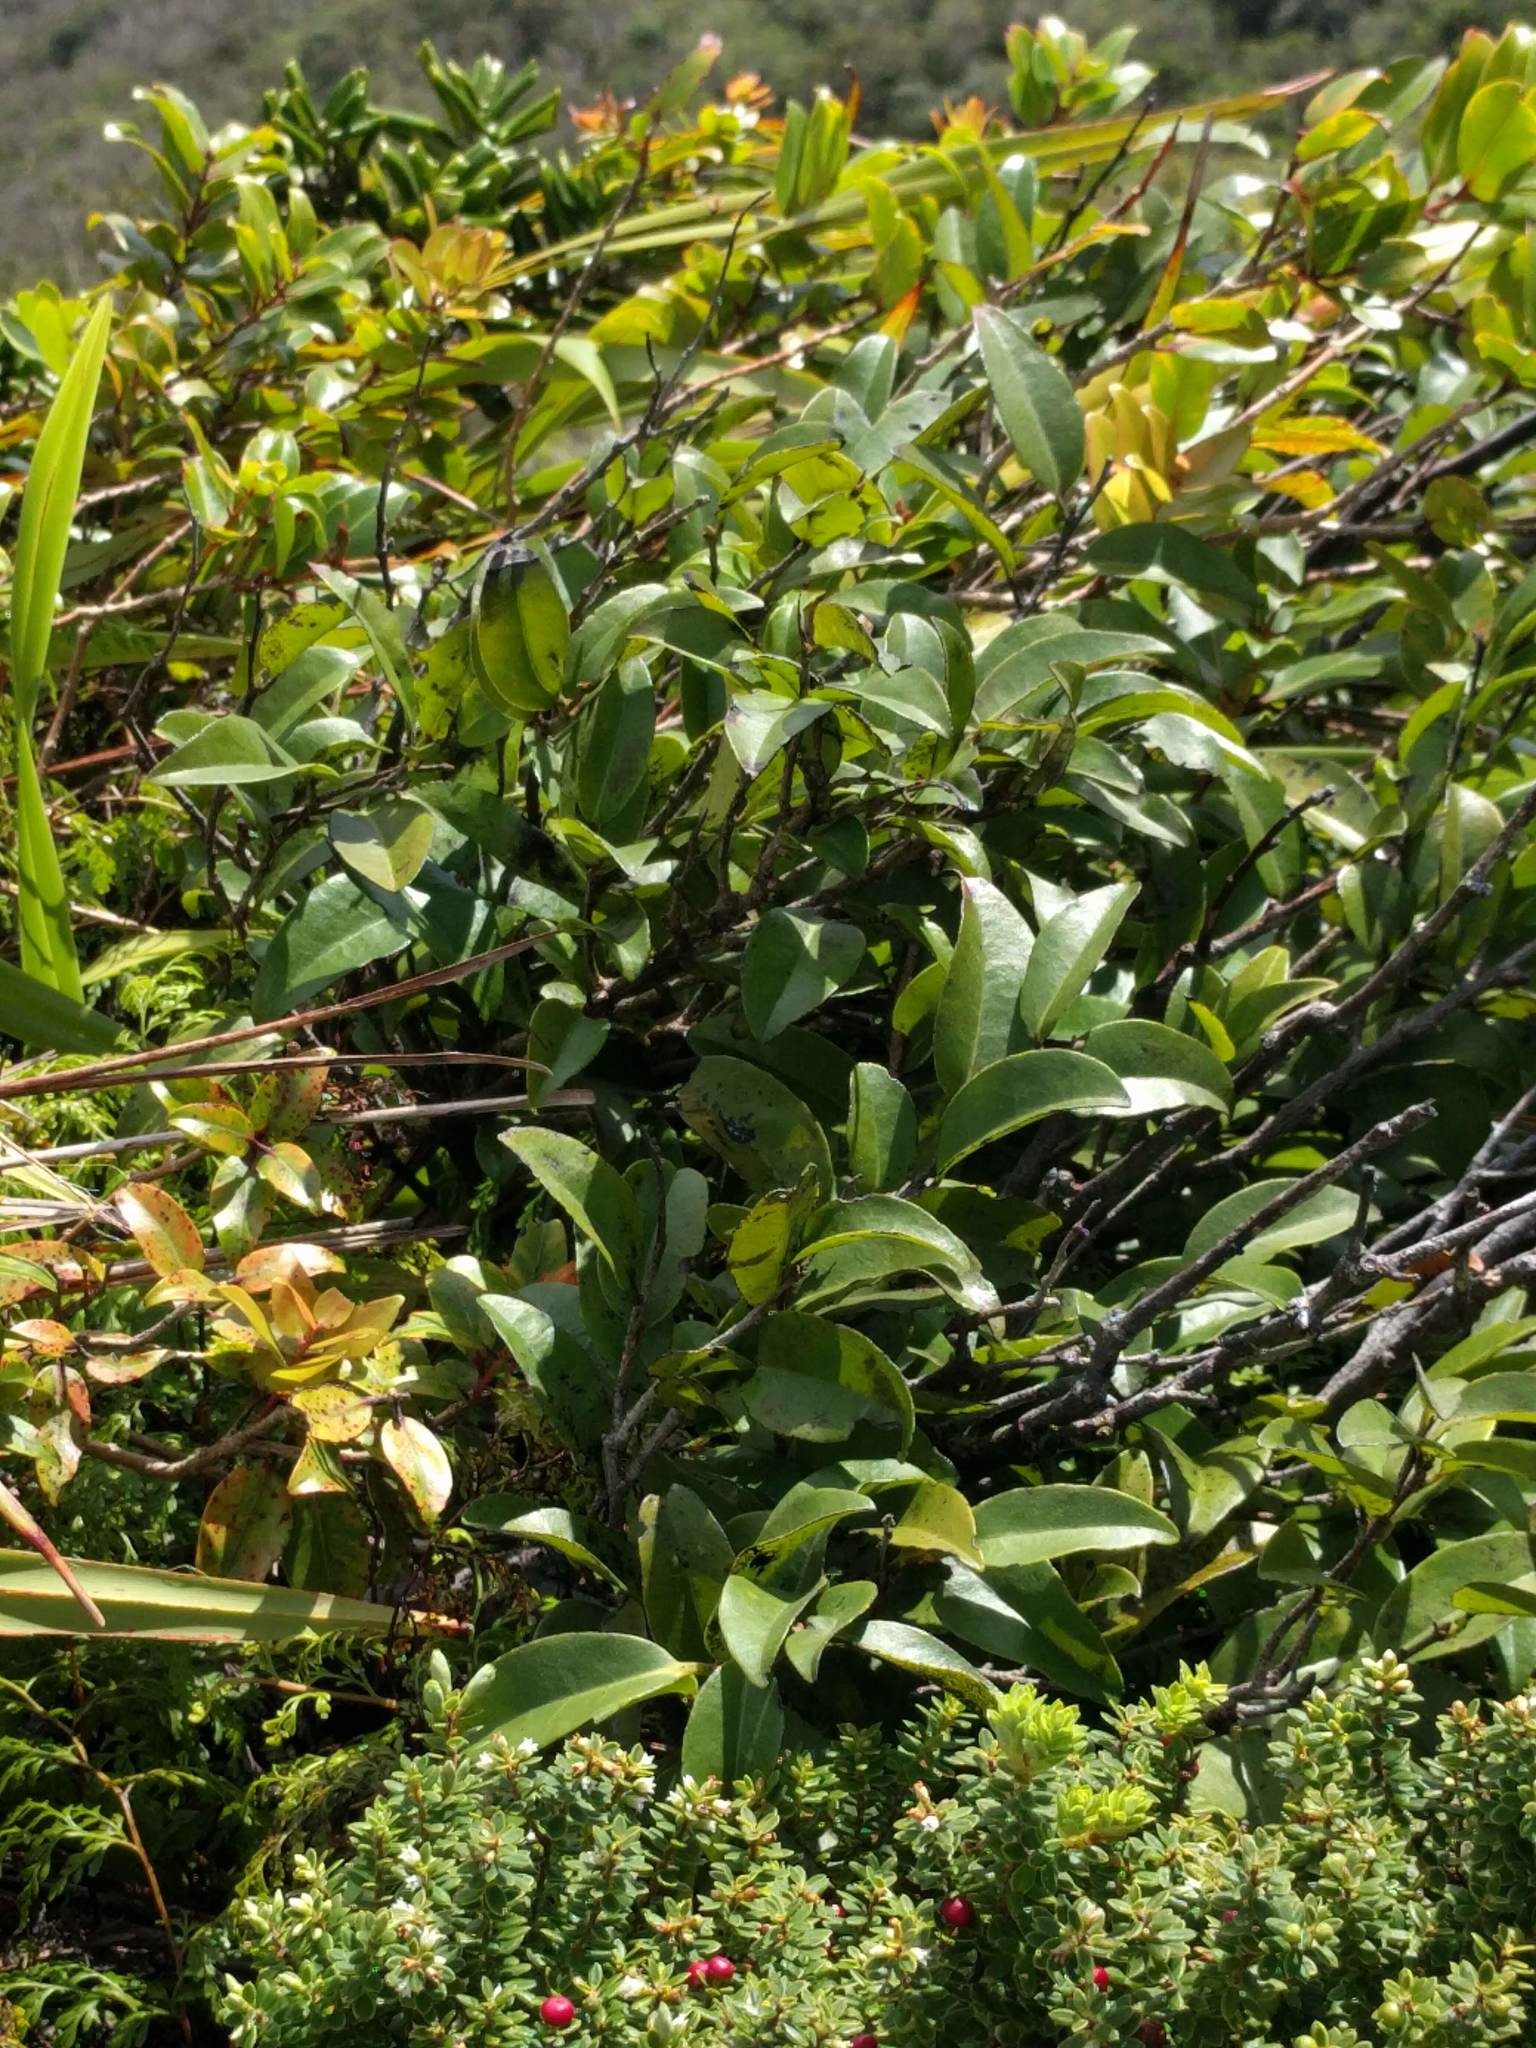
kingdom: Plantae
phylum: Tracheophyta
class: Magnoliopsida
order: Ericales
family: Ebenaceae
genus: Diospyros
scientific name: Diospyros sandwicensis
